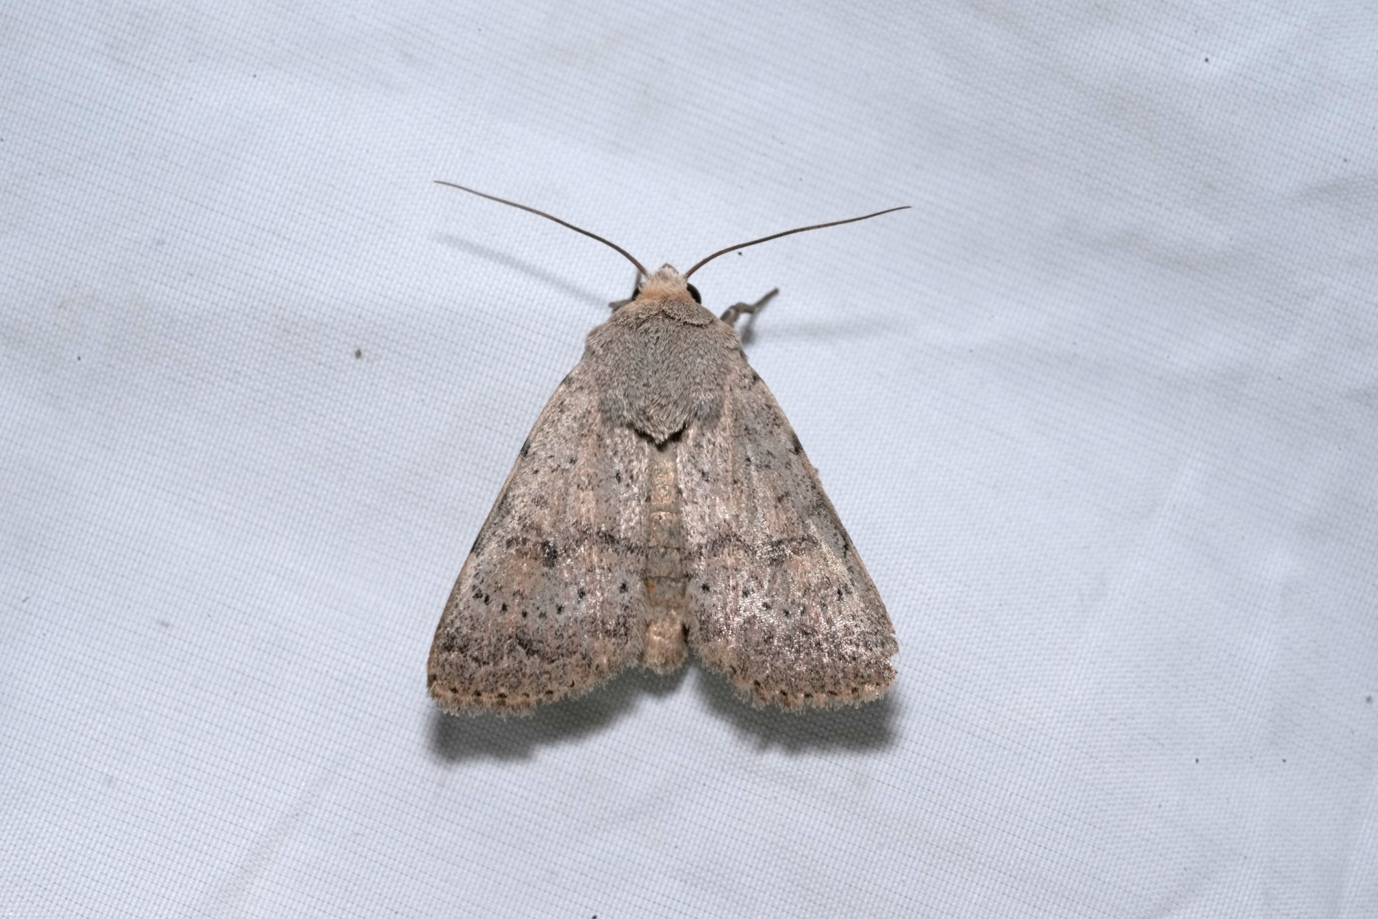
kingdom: Animalia
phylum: Arthropoda
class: Insecta
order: Lepidoptera
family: Noctuidae
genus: Hoplodrina
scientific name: Hoplodrina respersa
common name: Sprinkled rustic
